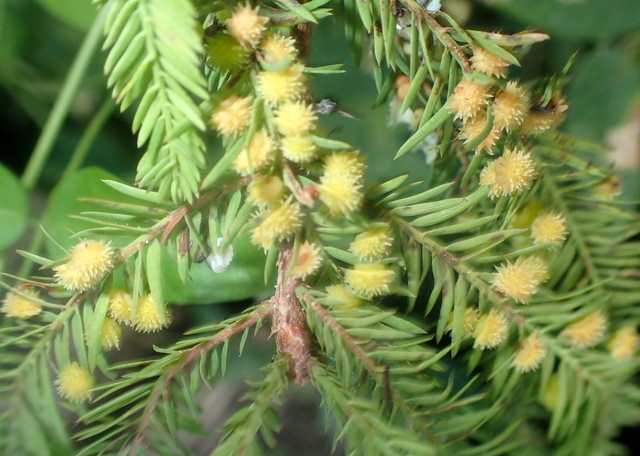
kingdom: Animalia
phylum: Arthropoda
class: Insecta
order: Diptera
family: Cecidomyiidae
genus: Taxodiomyia
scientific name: Taxodiomyia
